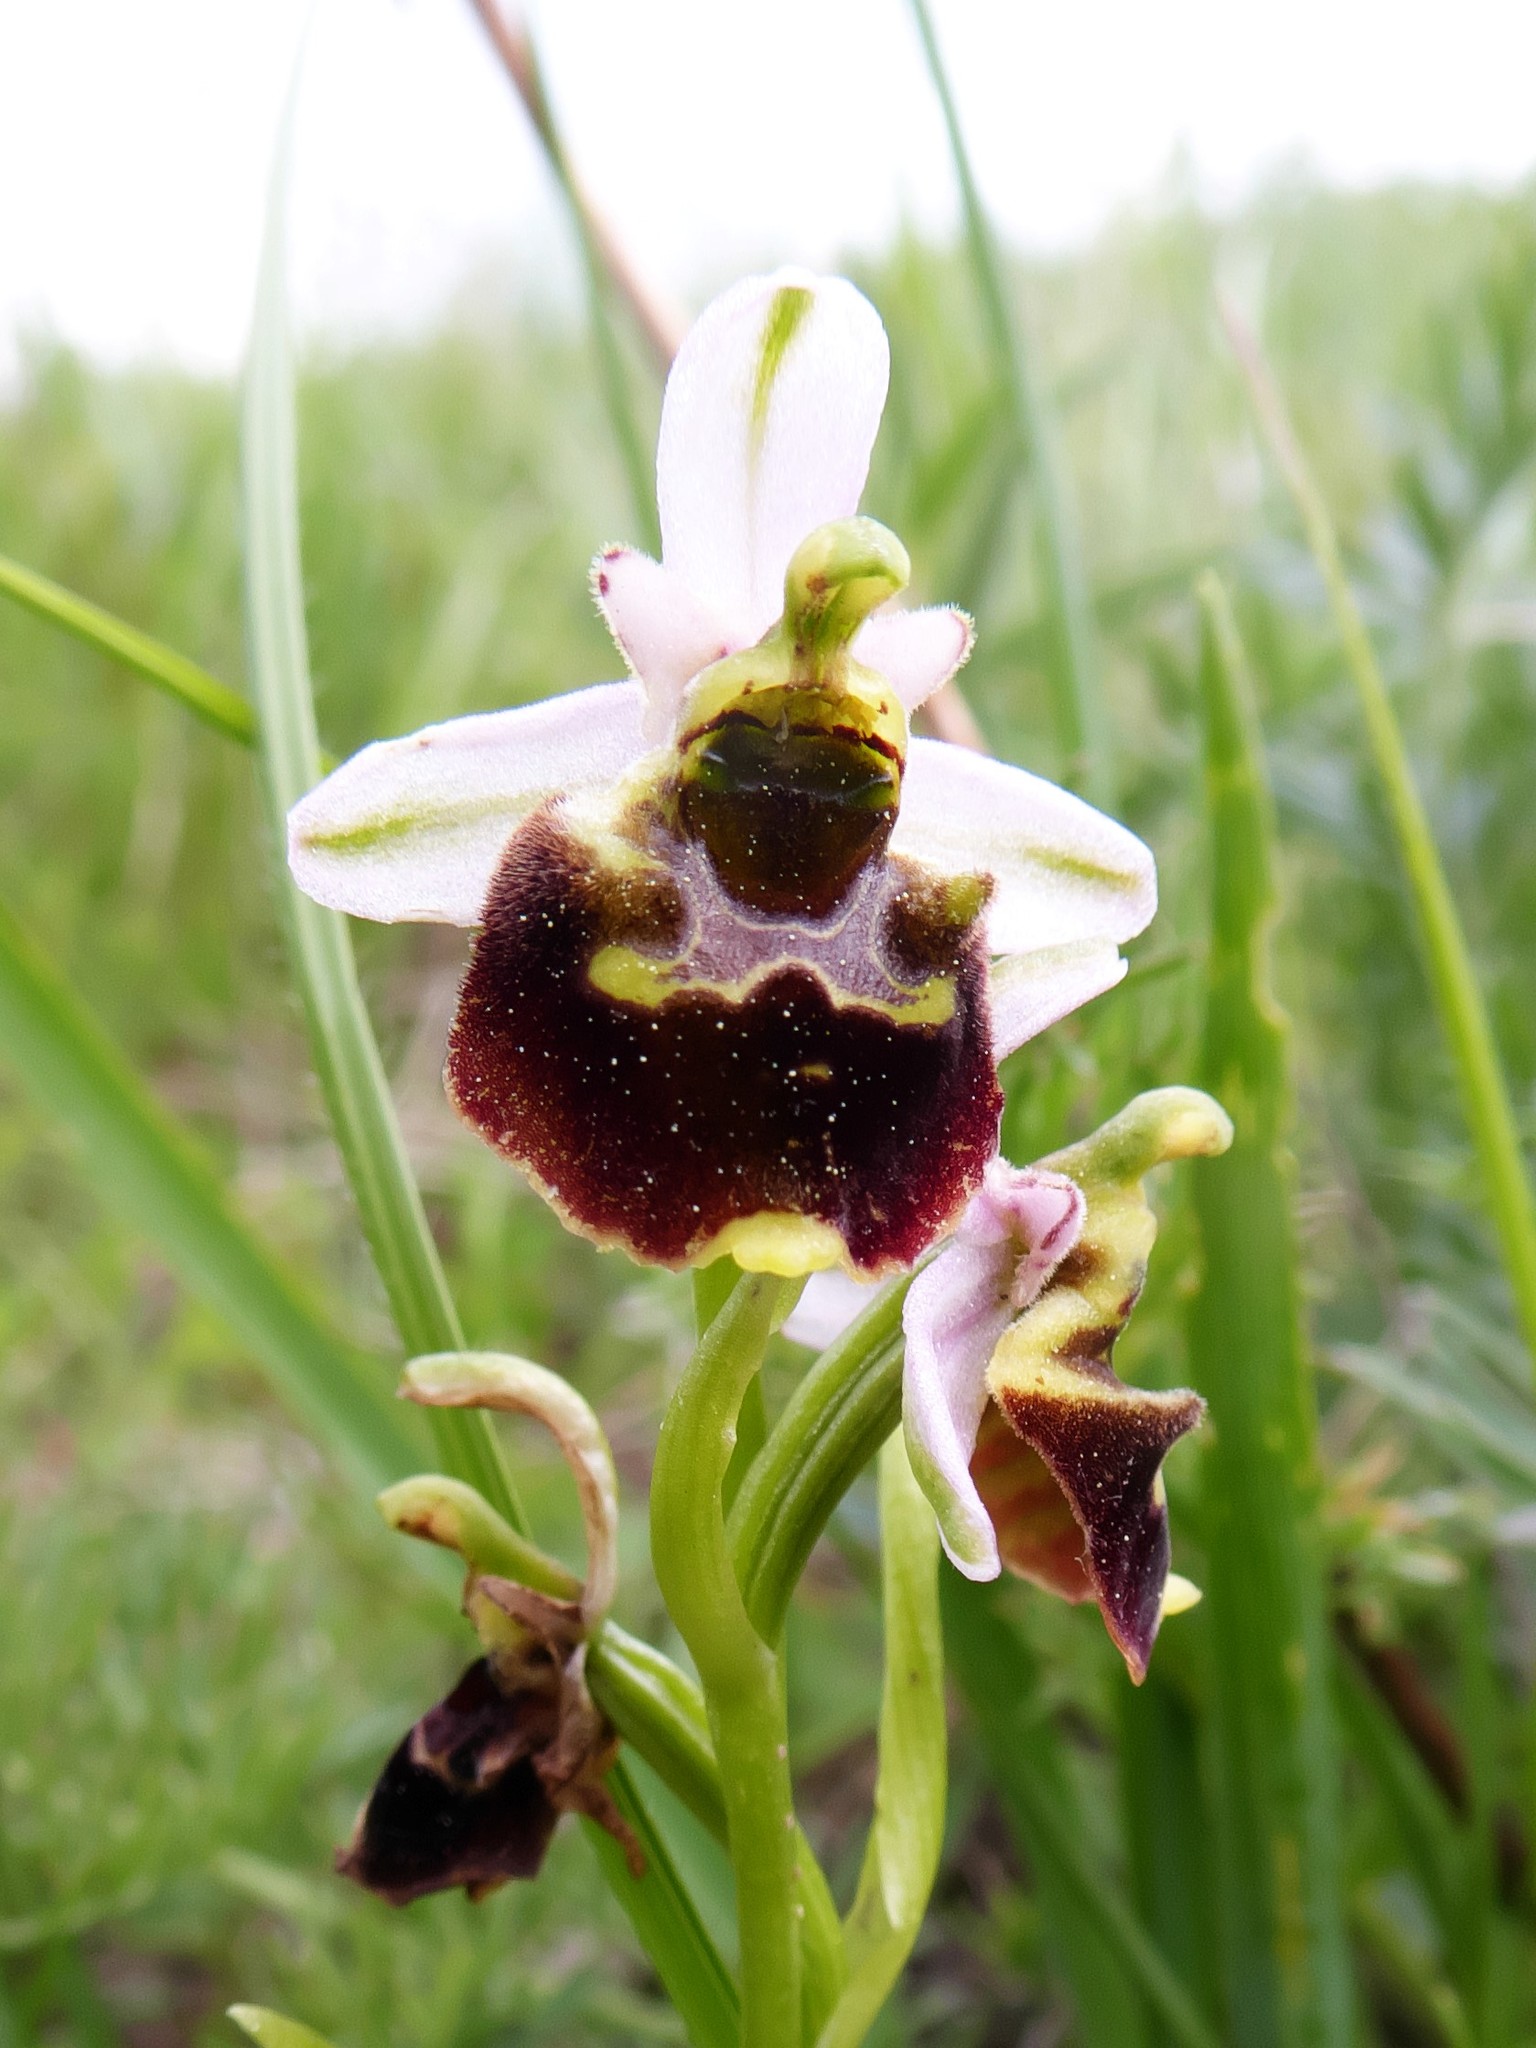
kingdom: Plantae
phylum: Tracheophyta
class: Liliopsida
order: Asparagales
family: Orchidaceae
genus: Ophrys
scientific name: Ophrys holosericea
